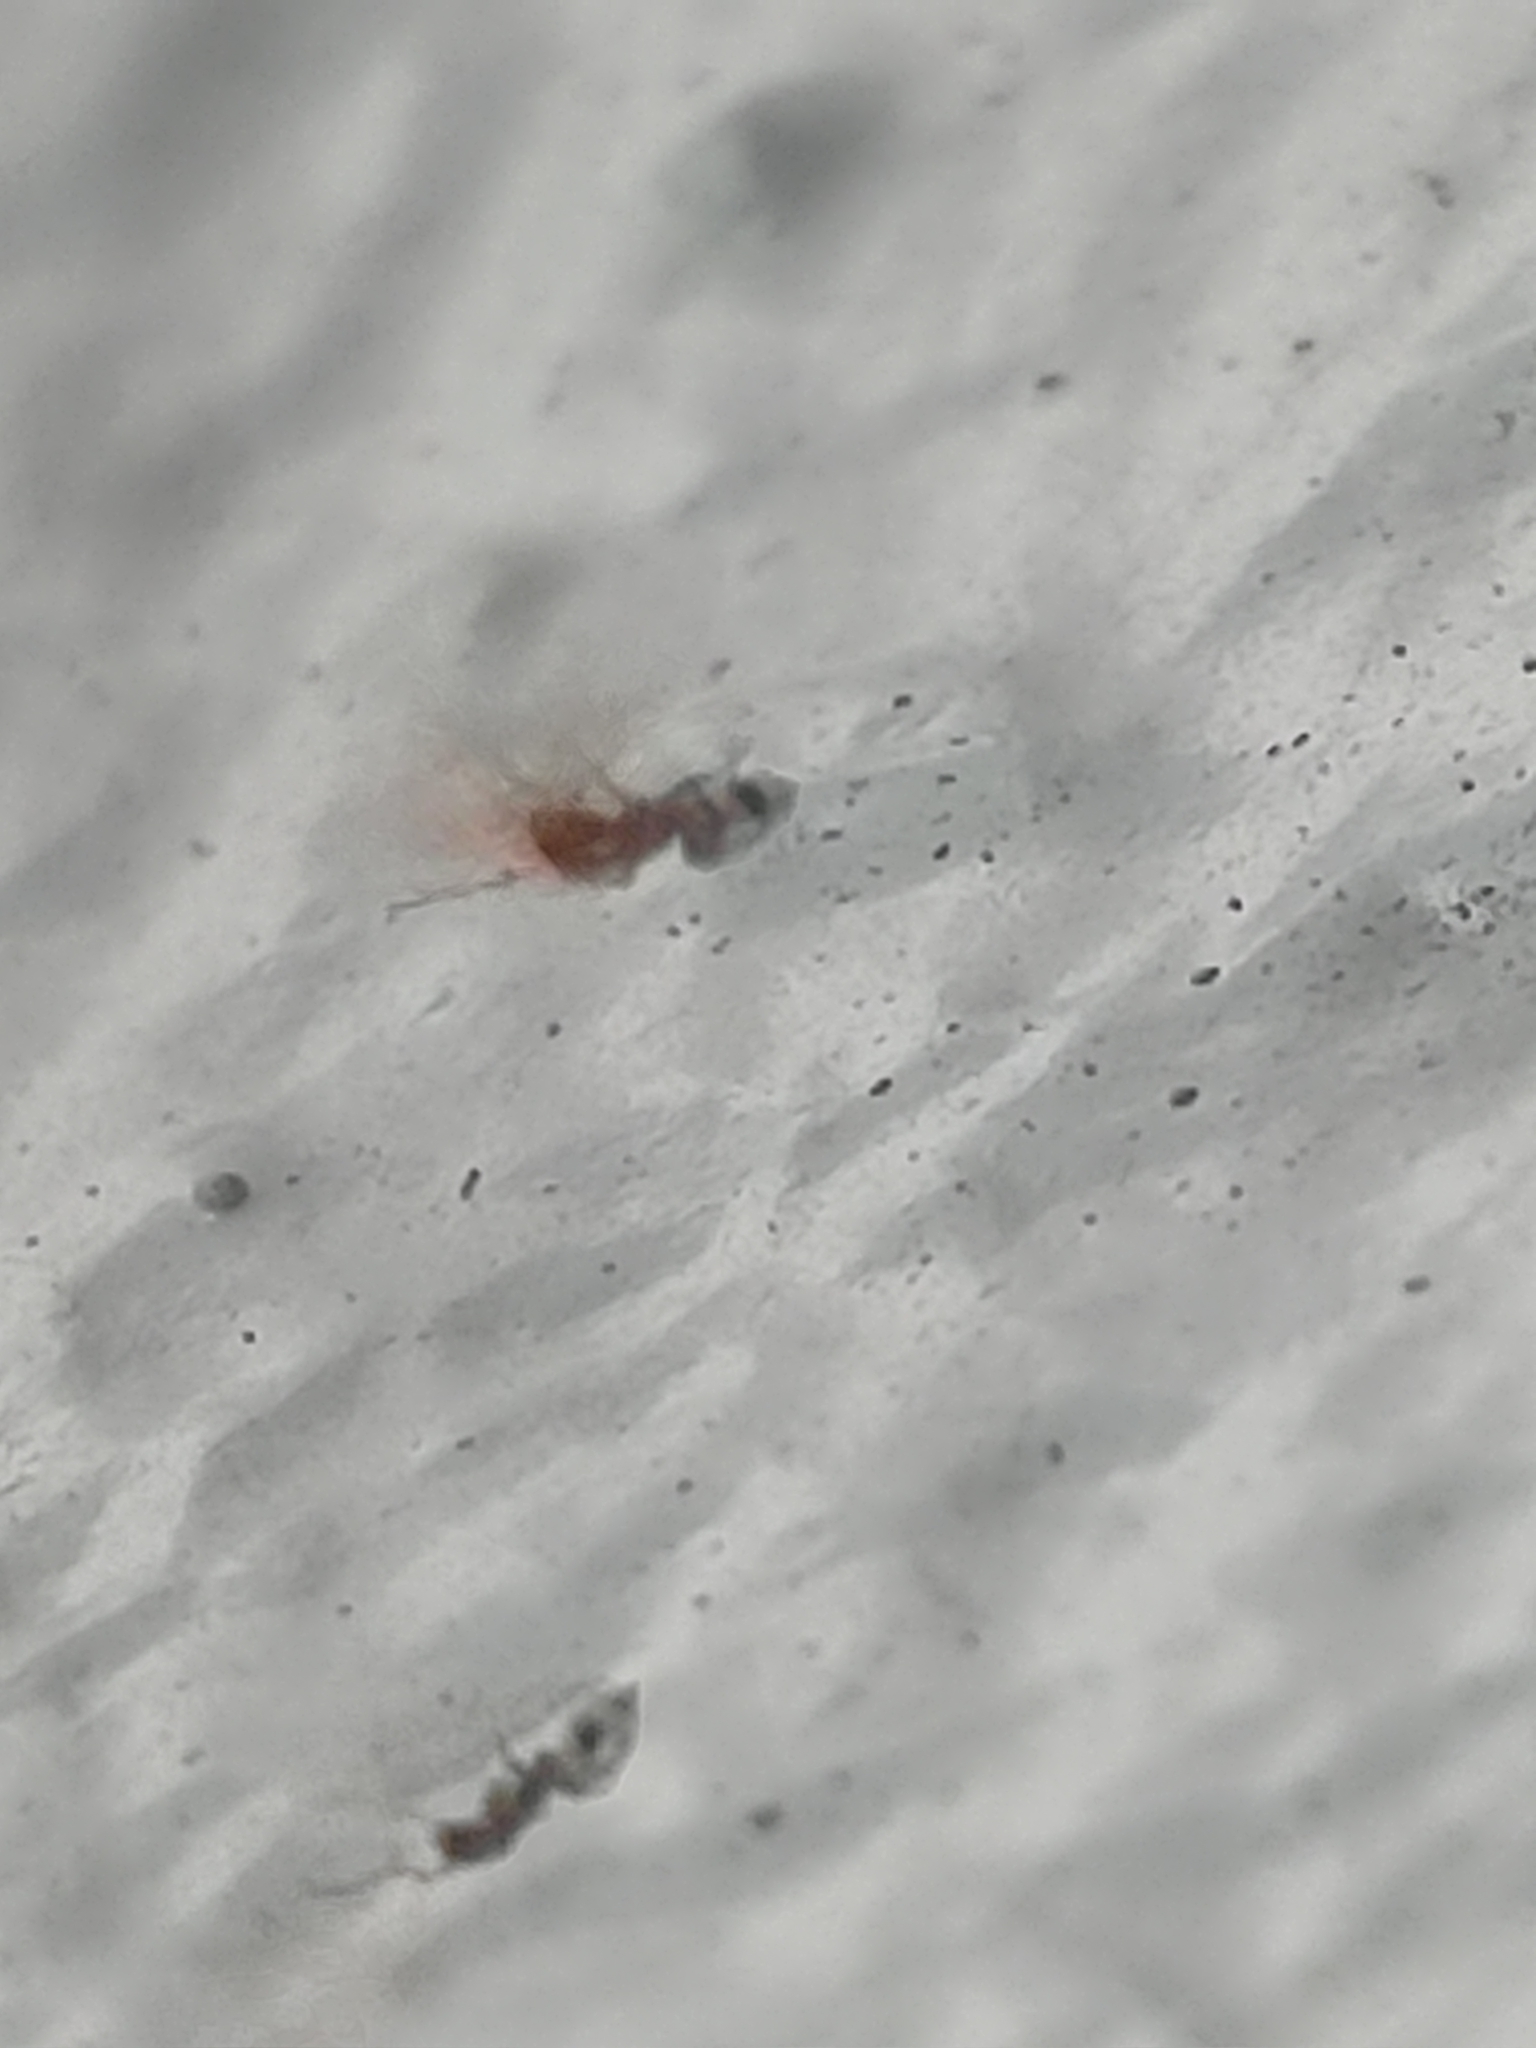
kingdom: Animalia
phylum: Arthropoda
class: Insecta
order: Hymenoptera
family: Formicidae
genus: Brachymyrmex
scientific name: Brachymyrmex obscurior
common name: Obscure rover ant
